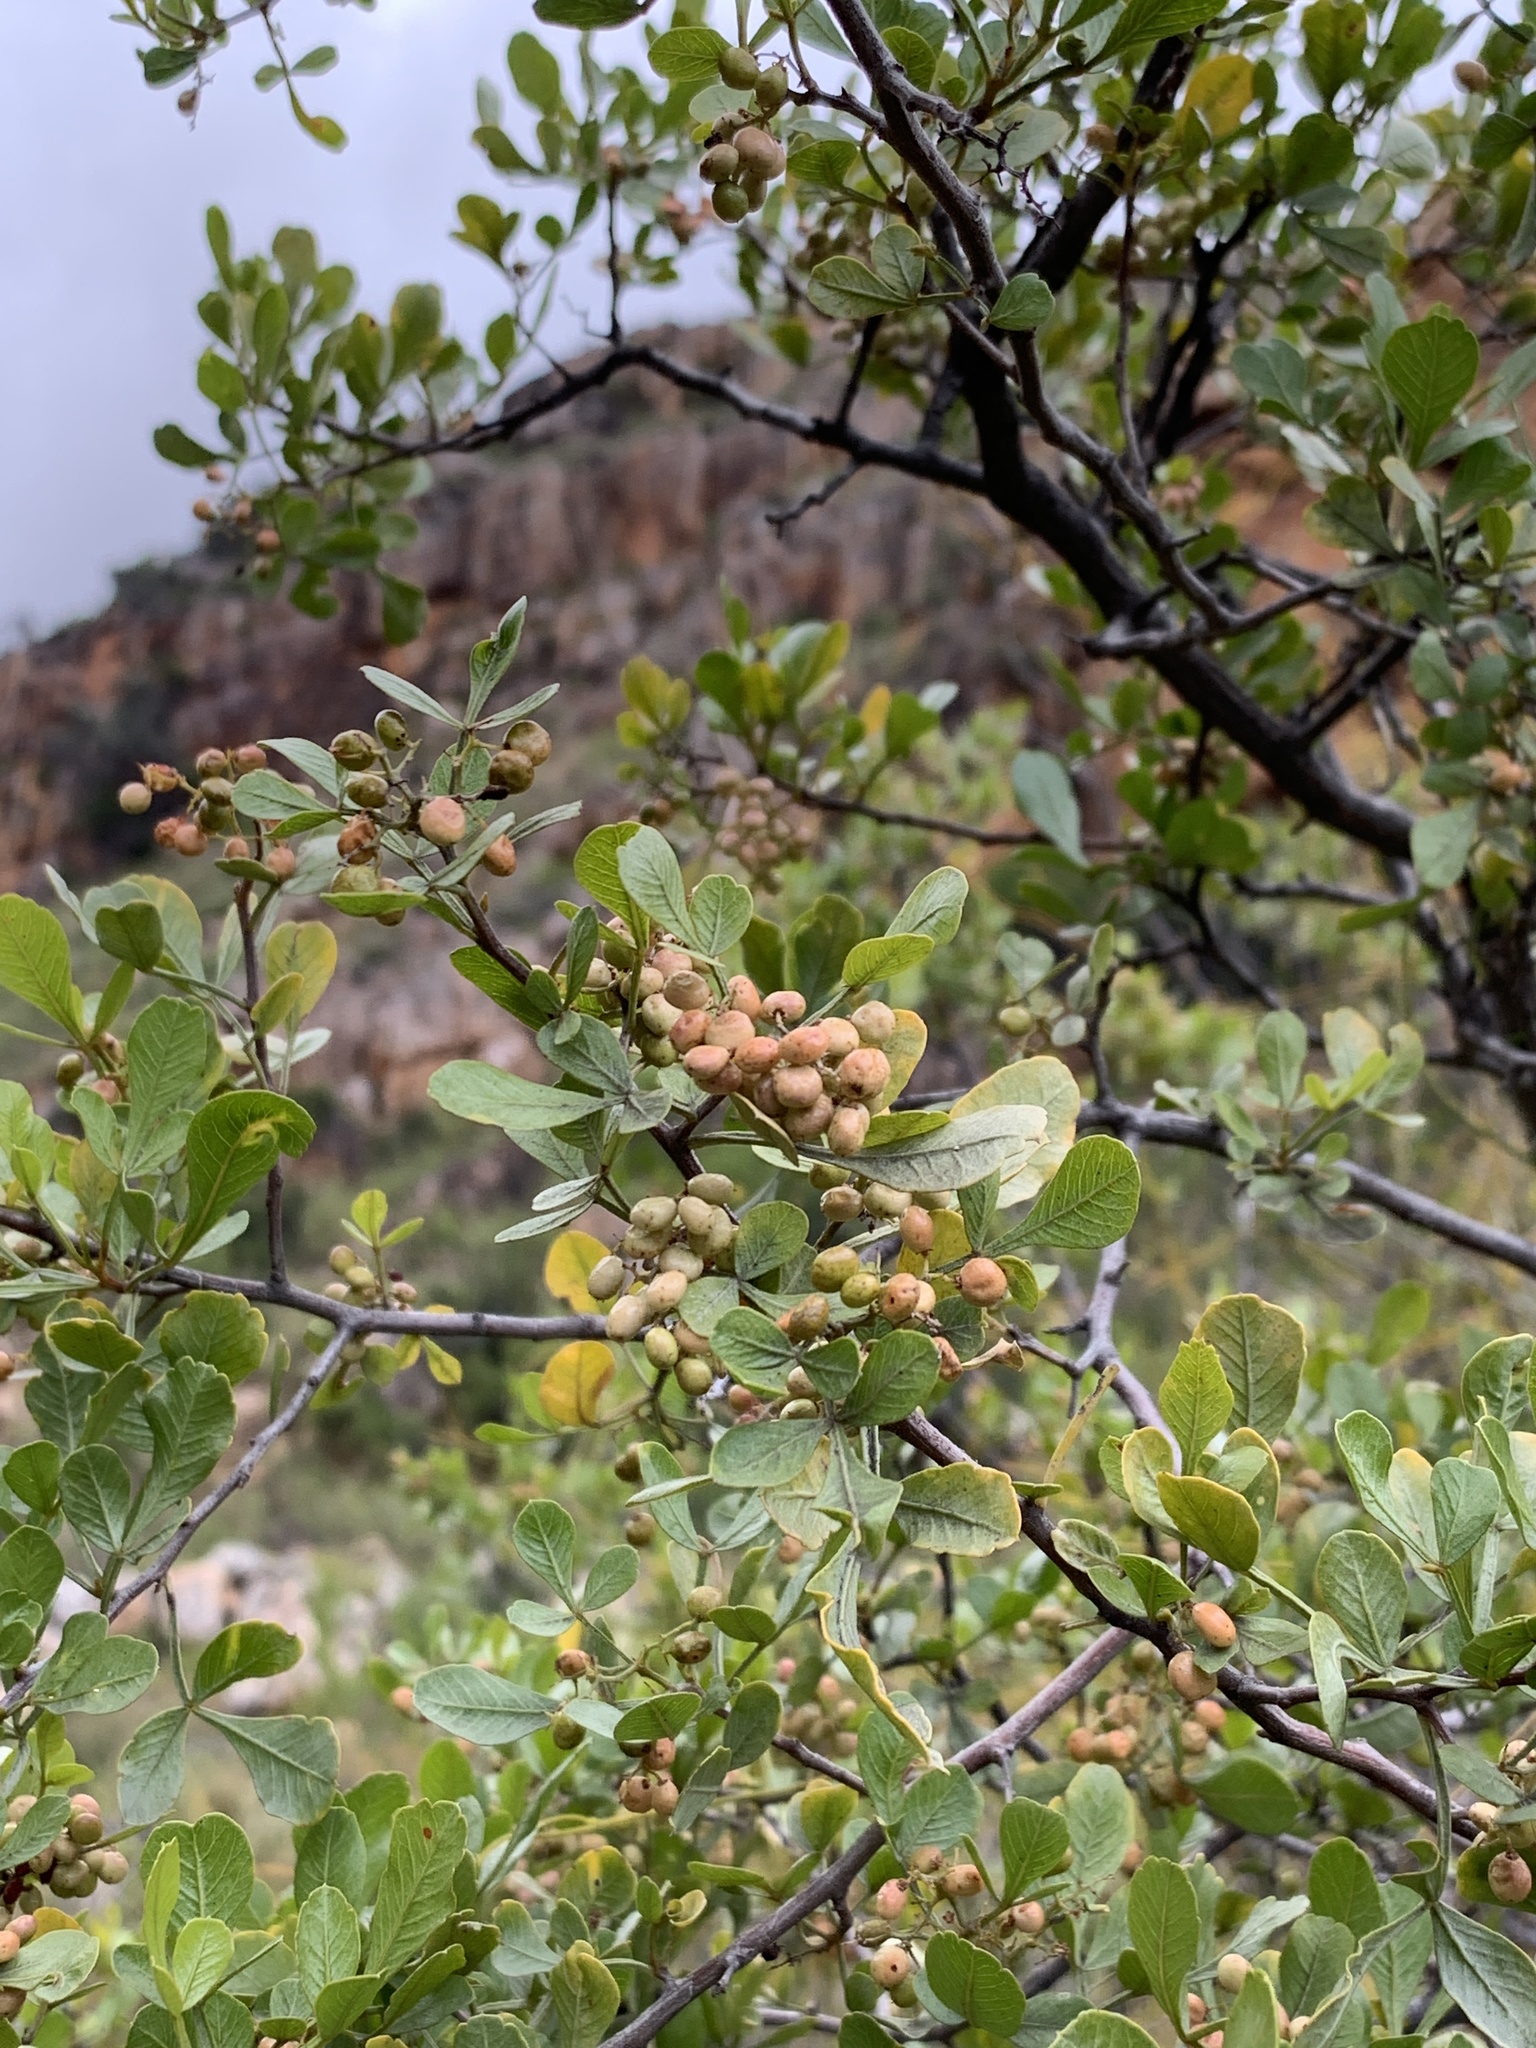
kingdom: Plantae
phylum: Tracheophyta
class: Magnoliopsida
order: Sapindales
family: Anacardiaceae
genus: Searsia
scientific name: Searsia undulata
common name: Namaqua kunibush
